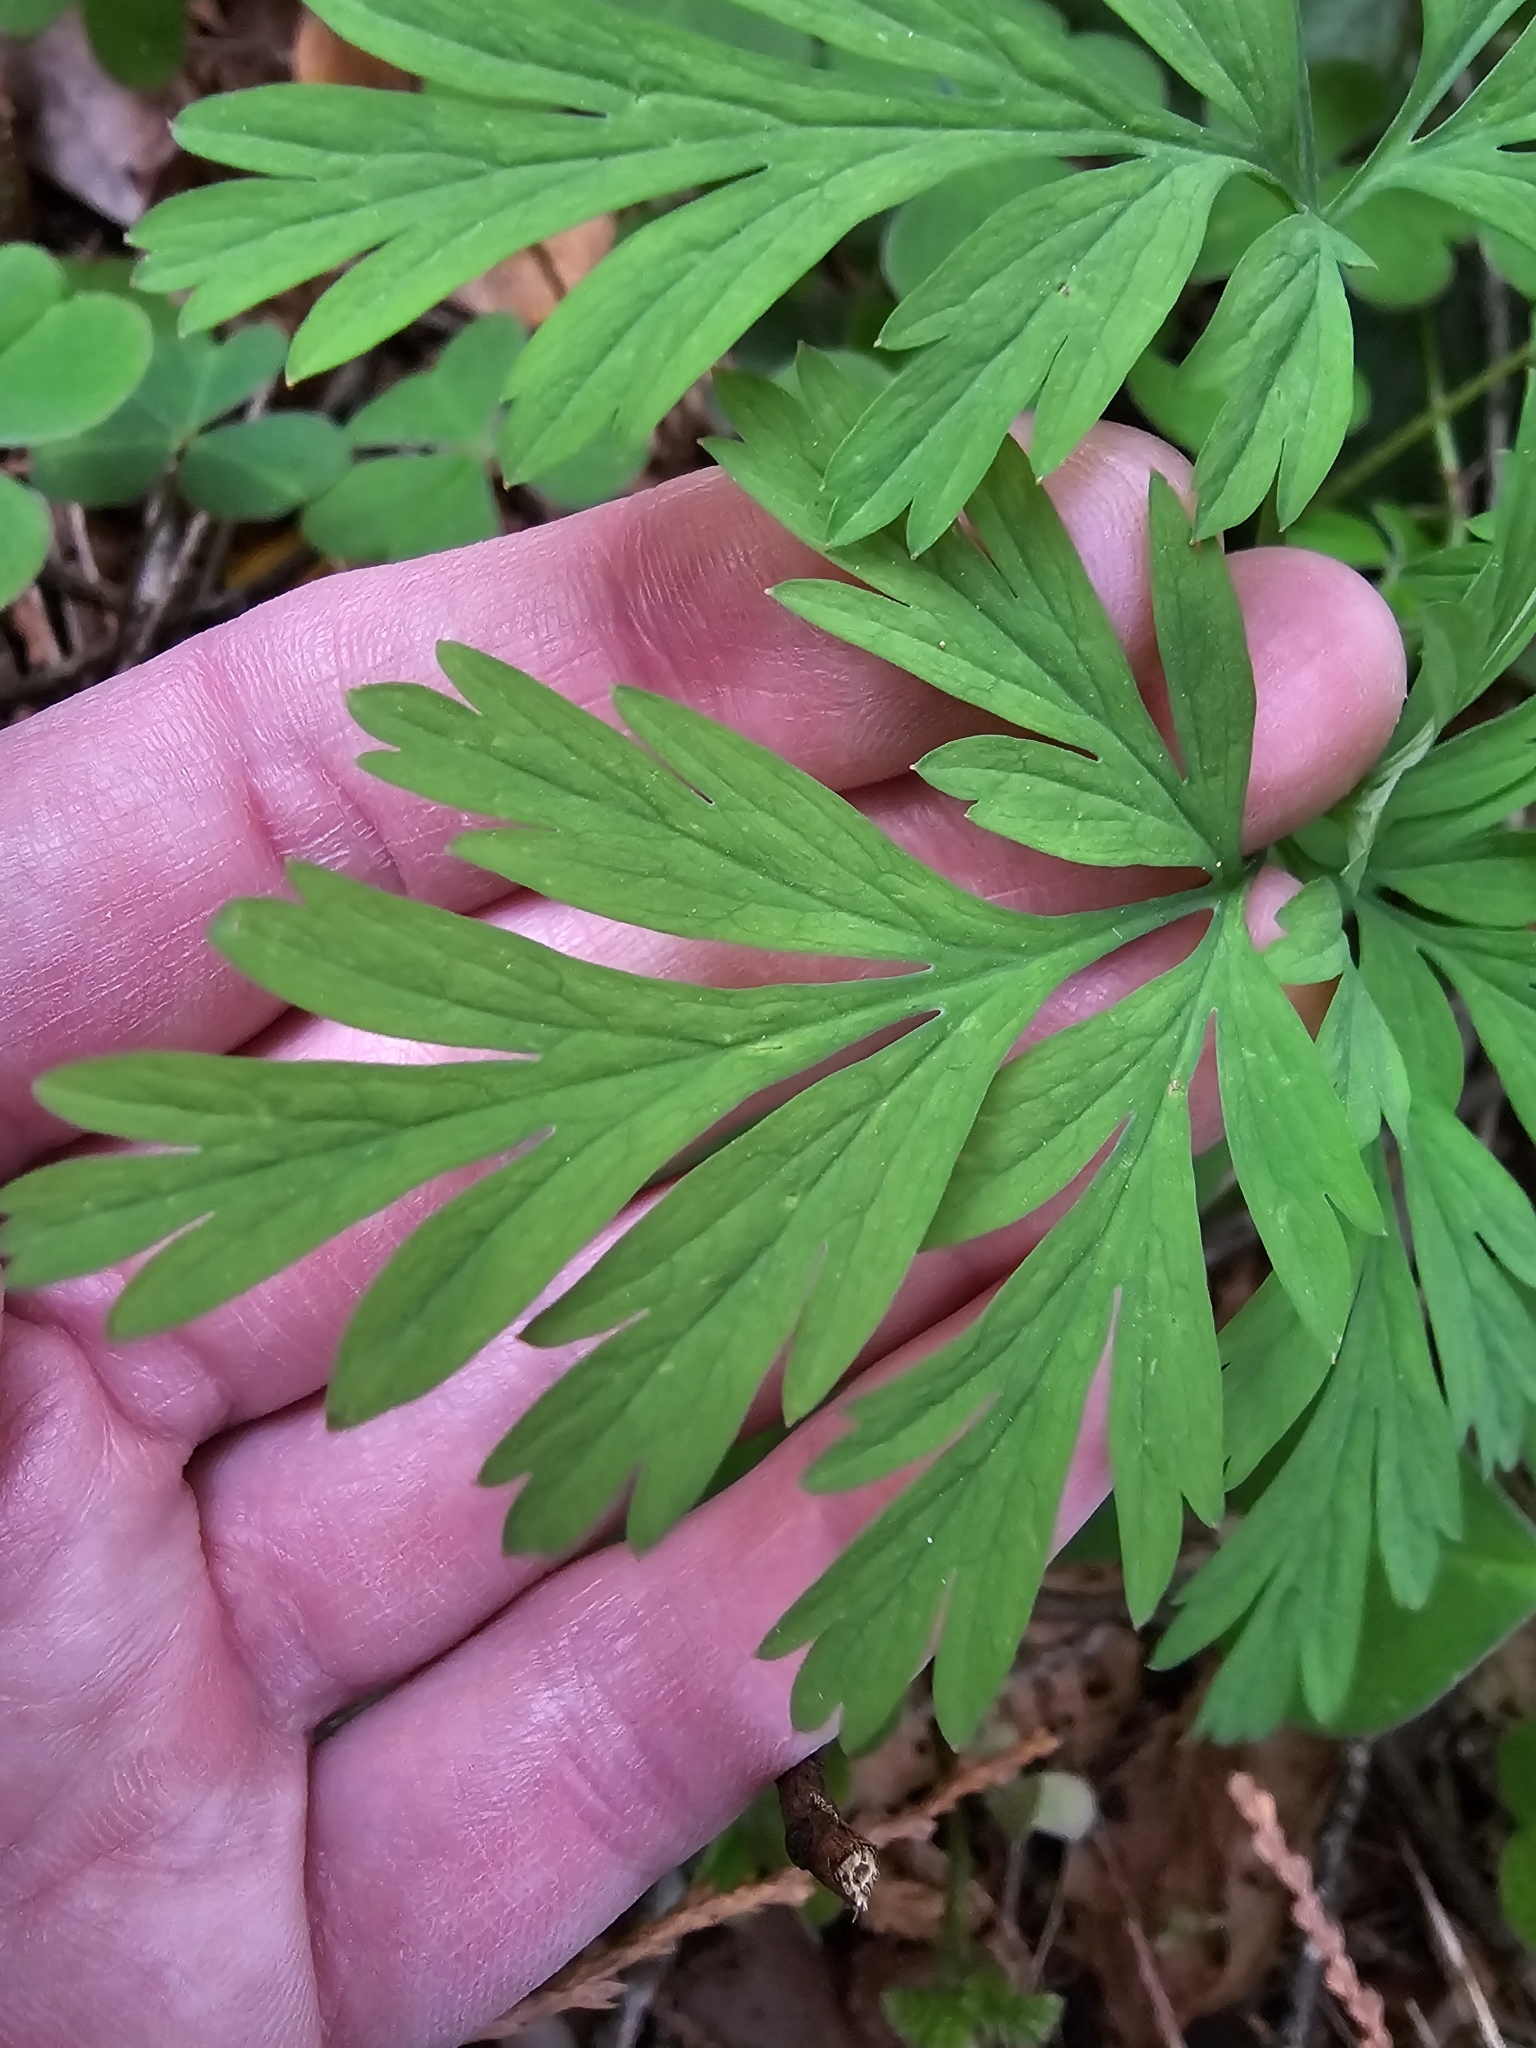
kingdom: Plantae
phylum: Tracheophyta
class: Magnoliopsida
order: Ranunculales
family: Papaveraceae
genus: Dicentra
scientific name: Dicentra formosa
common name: Bleeding-heart
